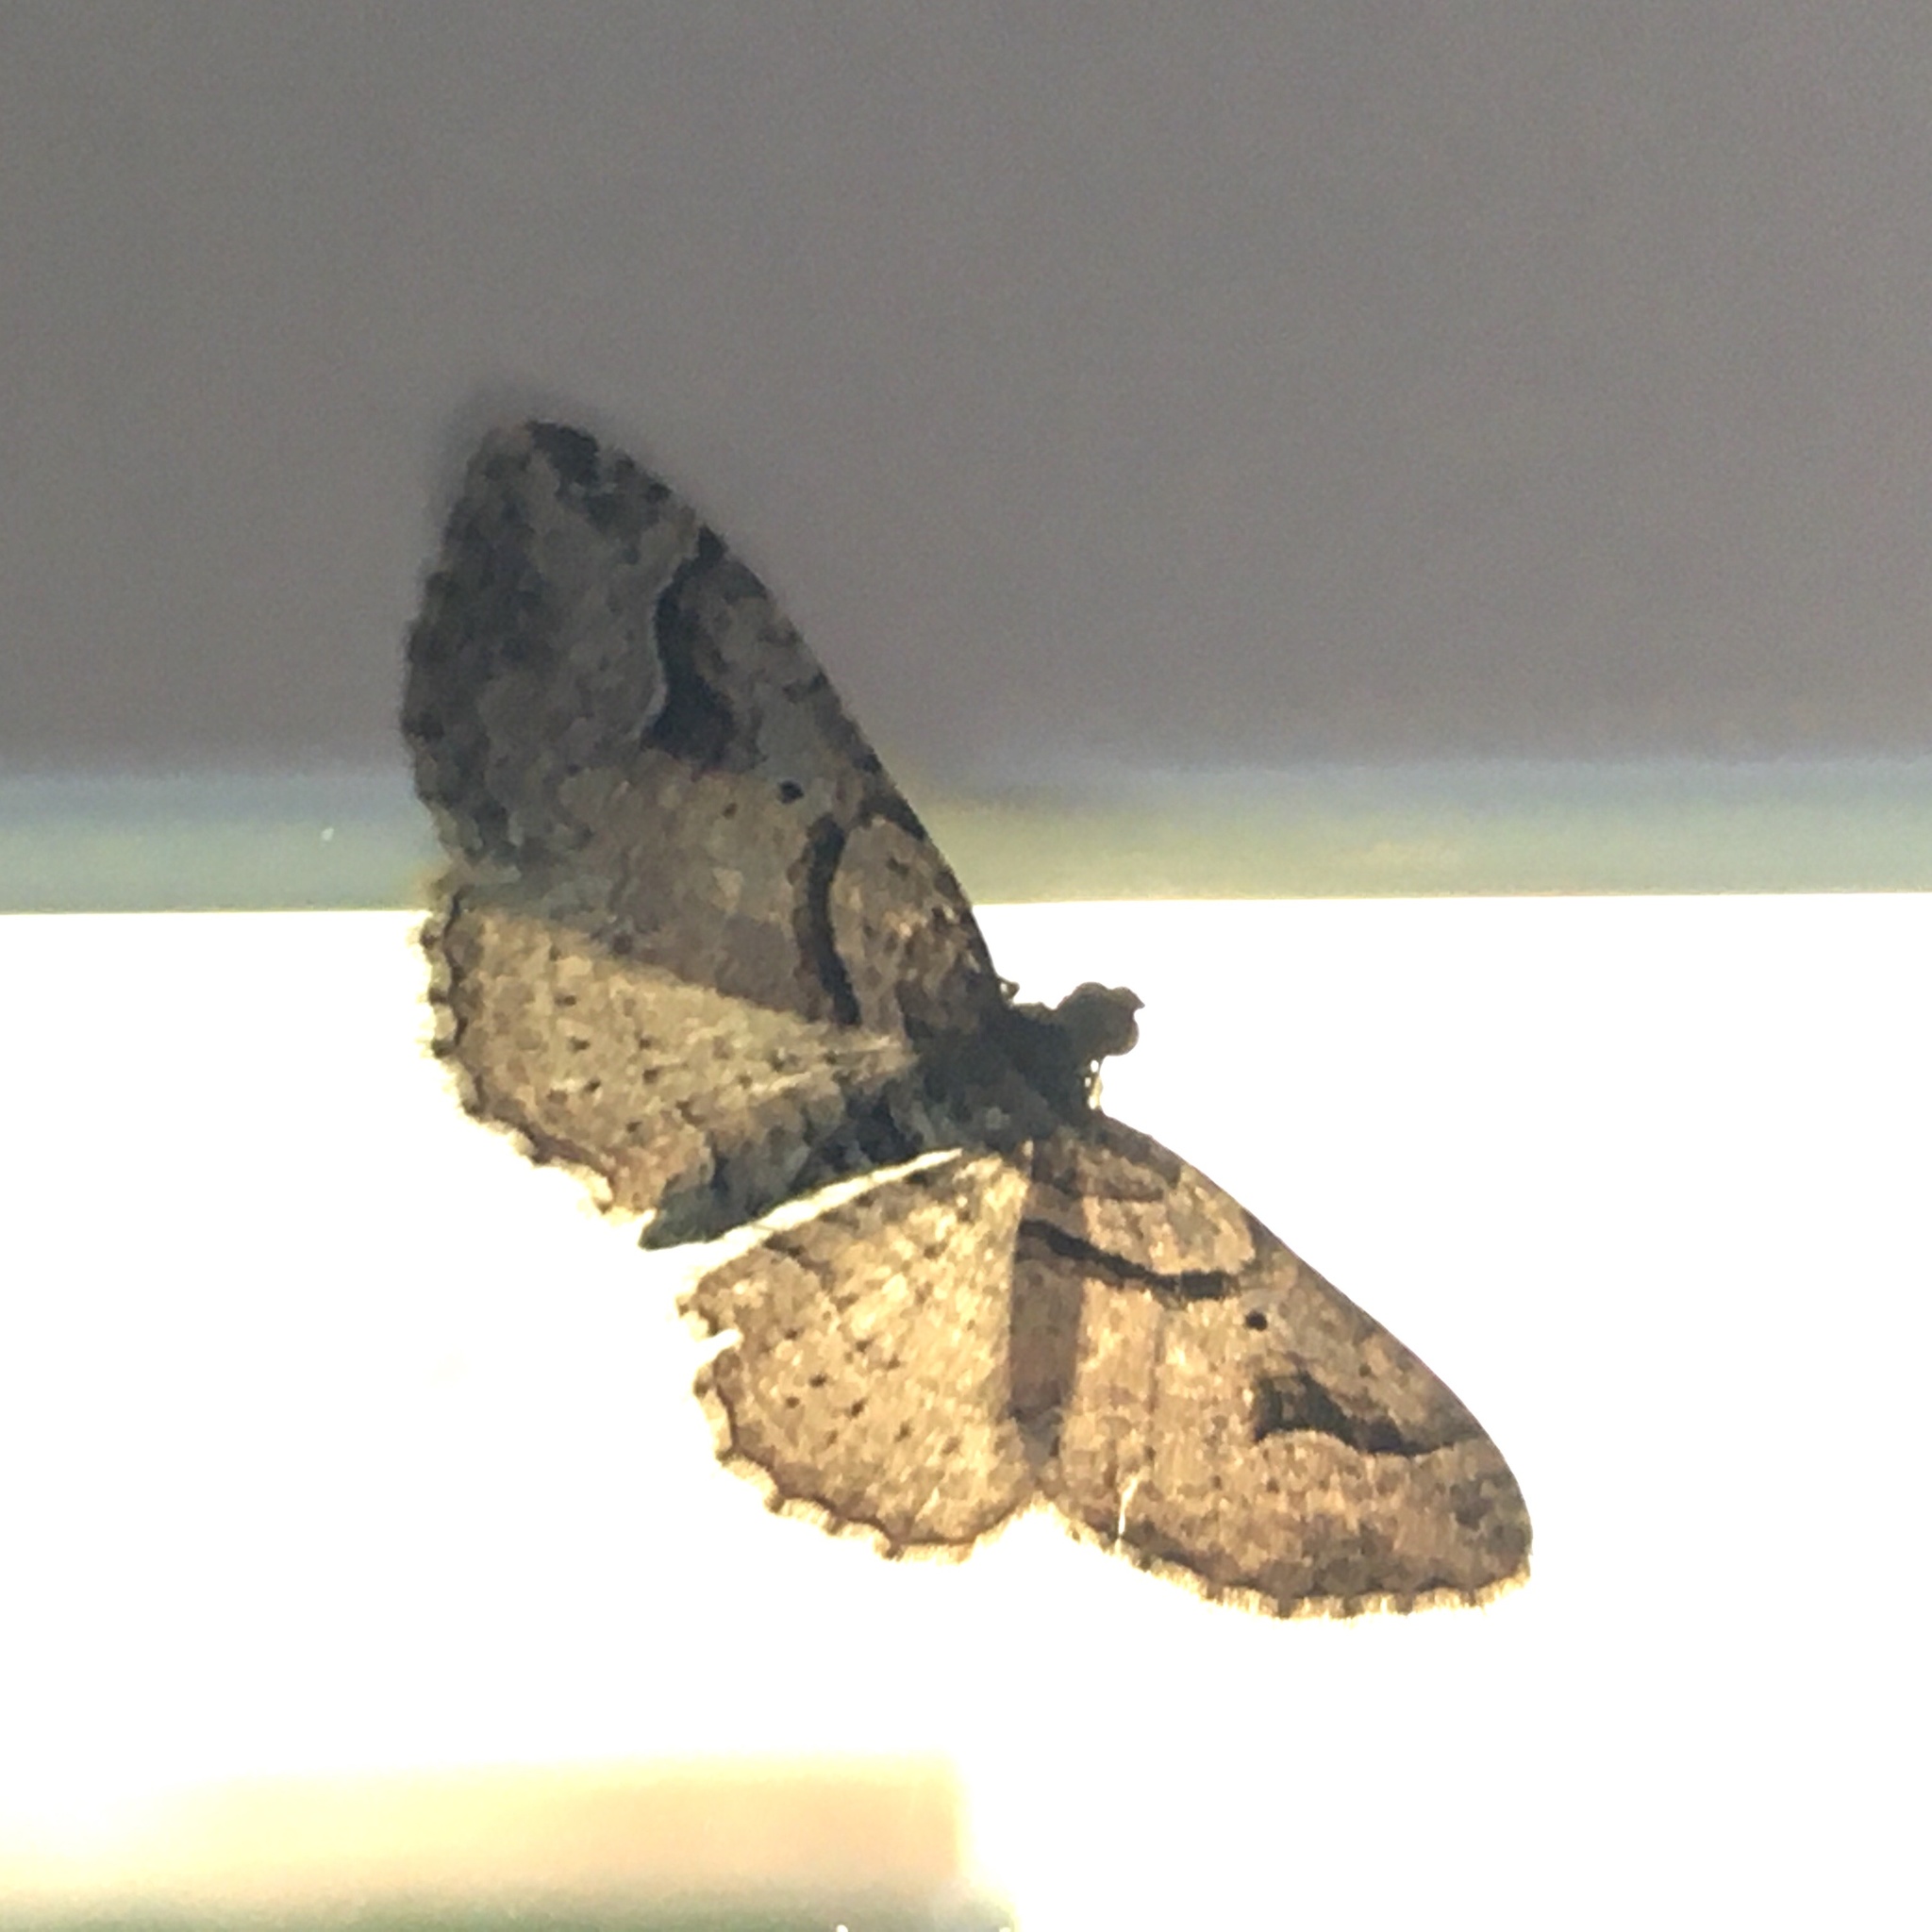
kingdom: Animalia
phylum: Arthropoda
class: Insecta
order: Lepidoptera
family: Geometridae
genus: Costaconvexa
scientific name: Costaconvexa centrostrigaria
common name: Bent-line carpet
